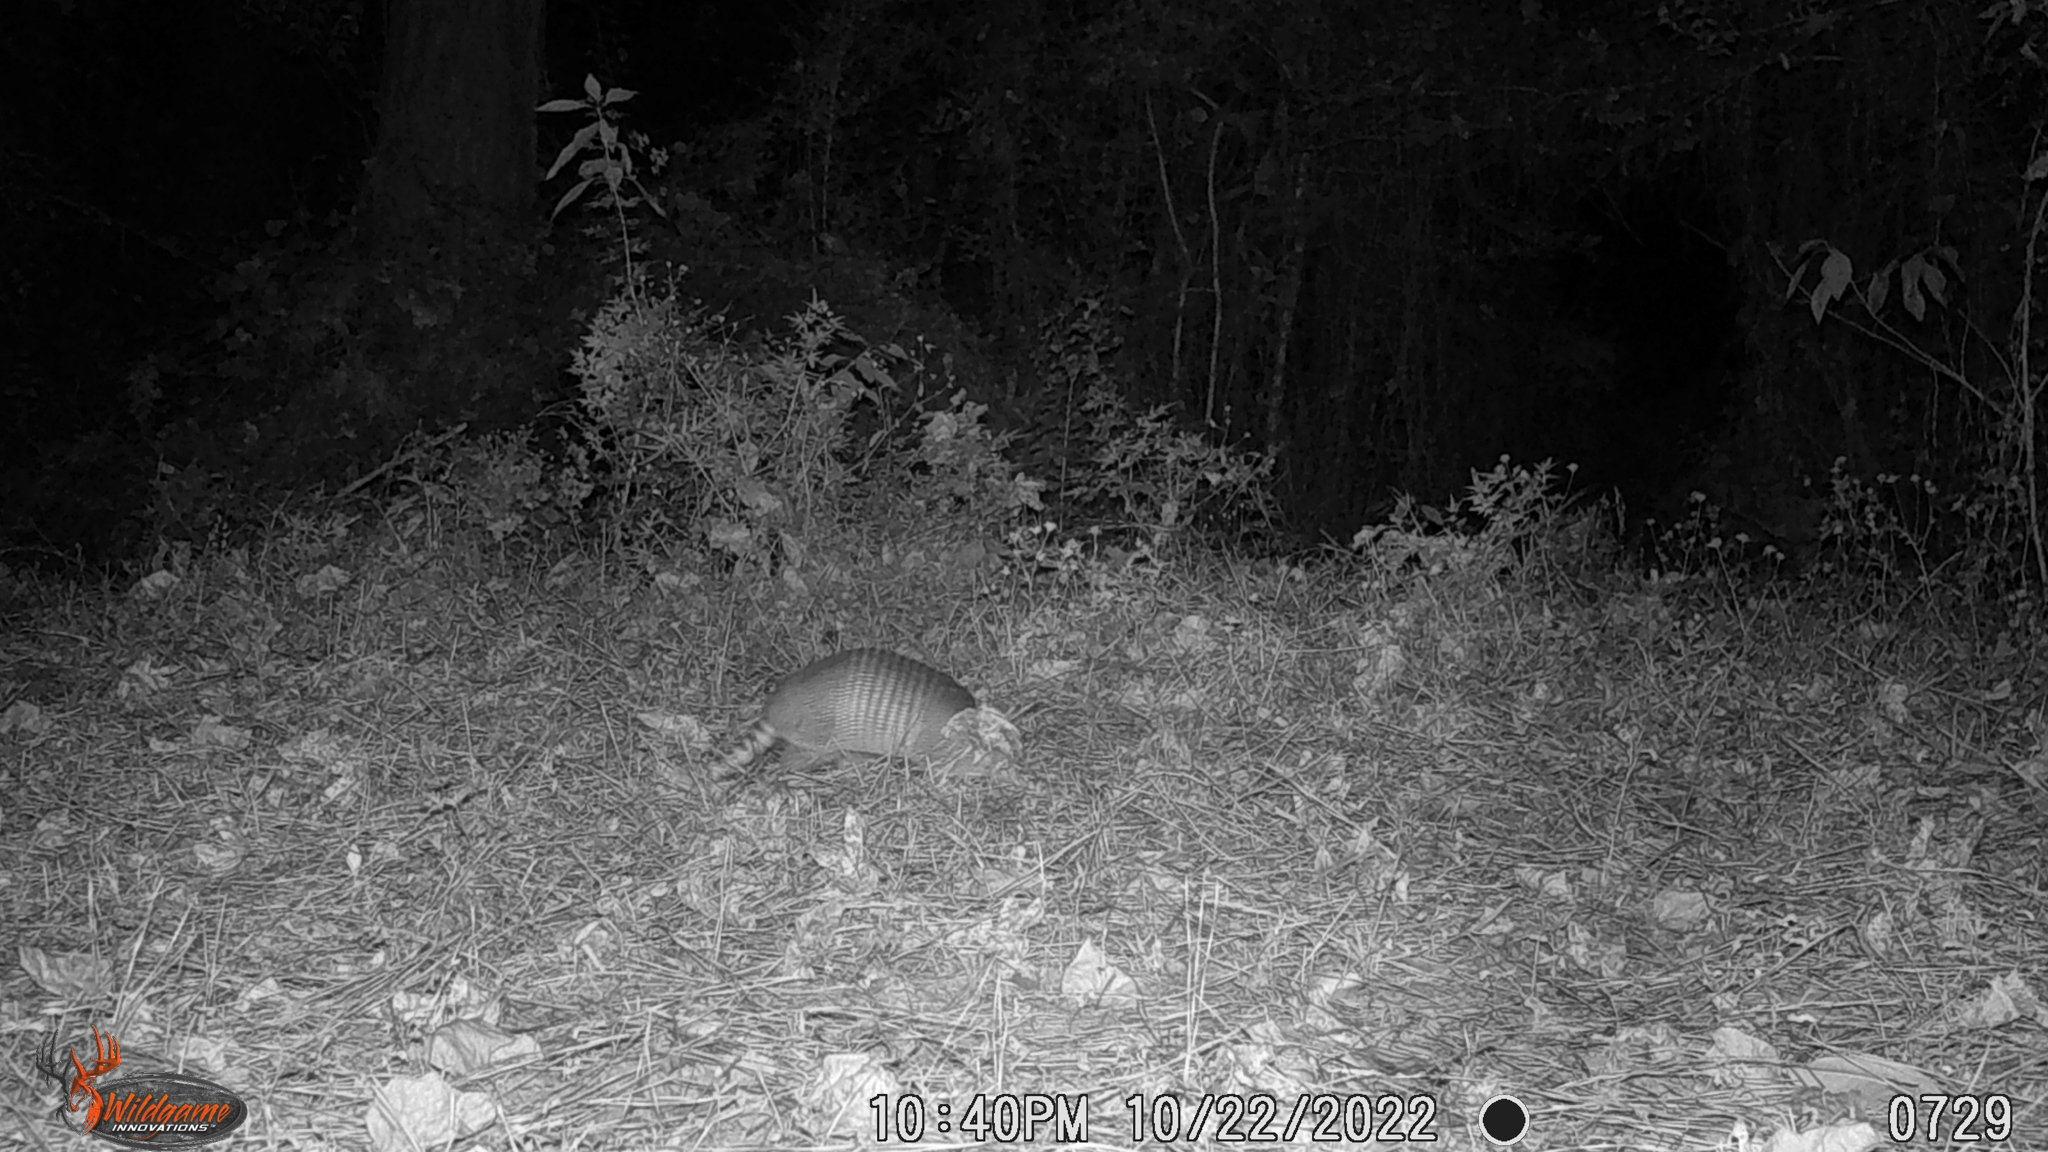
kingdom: Animalia
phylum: Chordata
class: Mammalia
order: Cingulata
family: Dasypodidae
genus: Dasypus
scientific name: Dasypus novemcinctus
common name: Nine-banded armadillo
